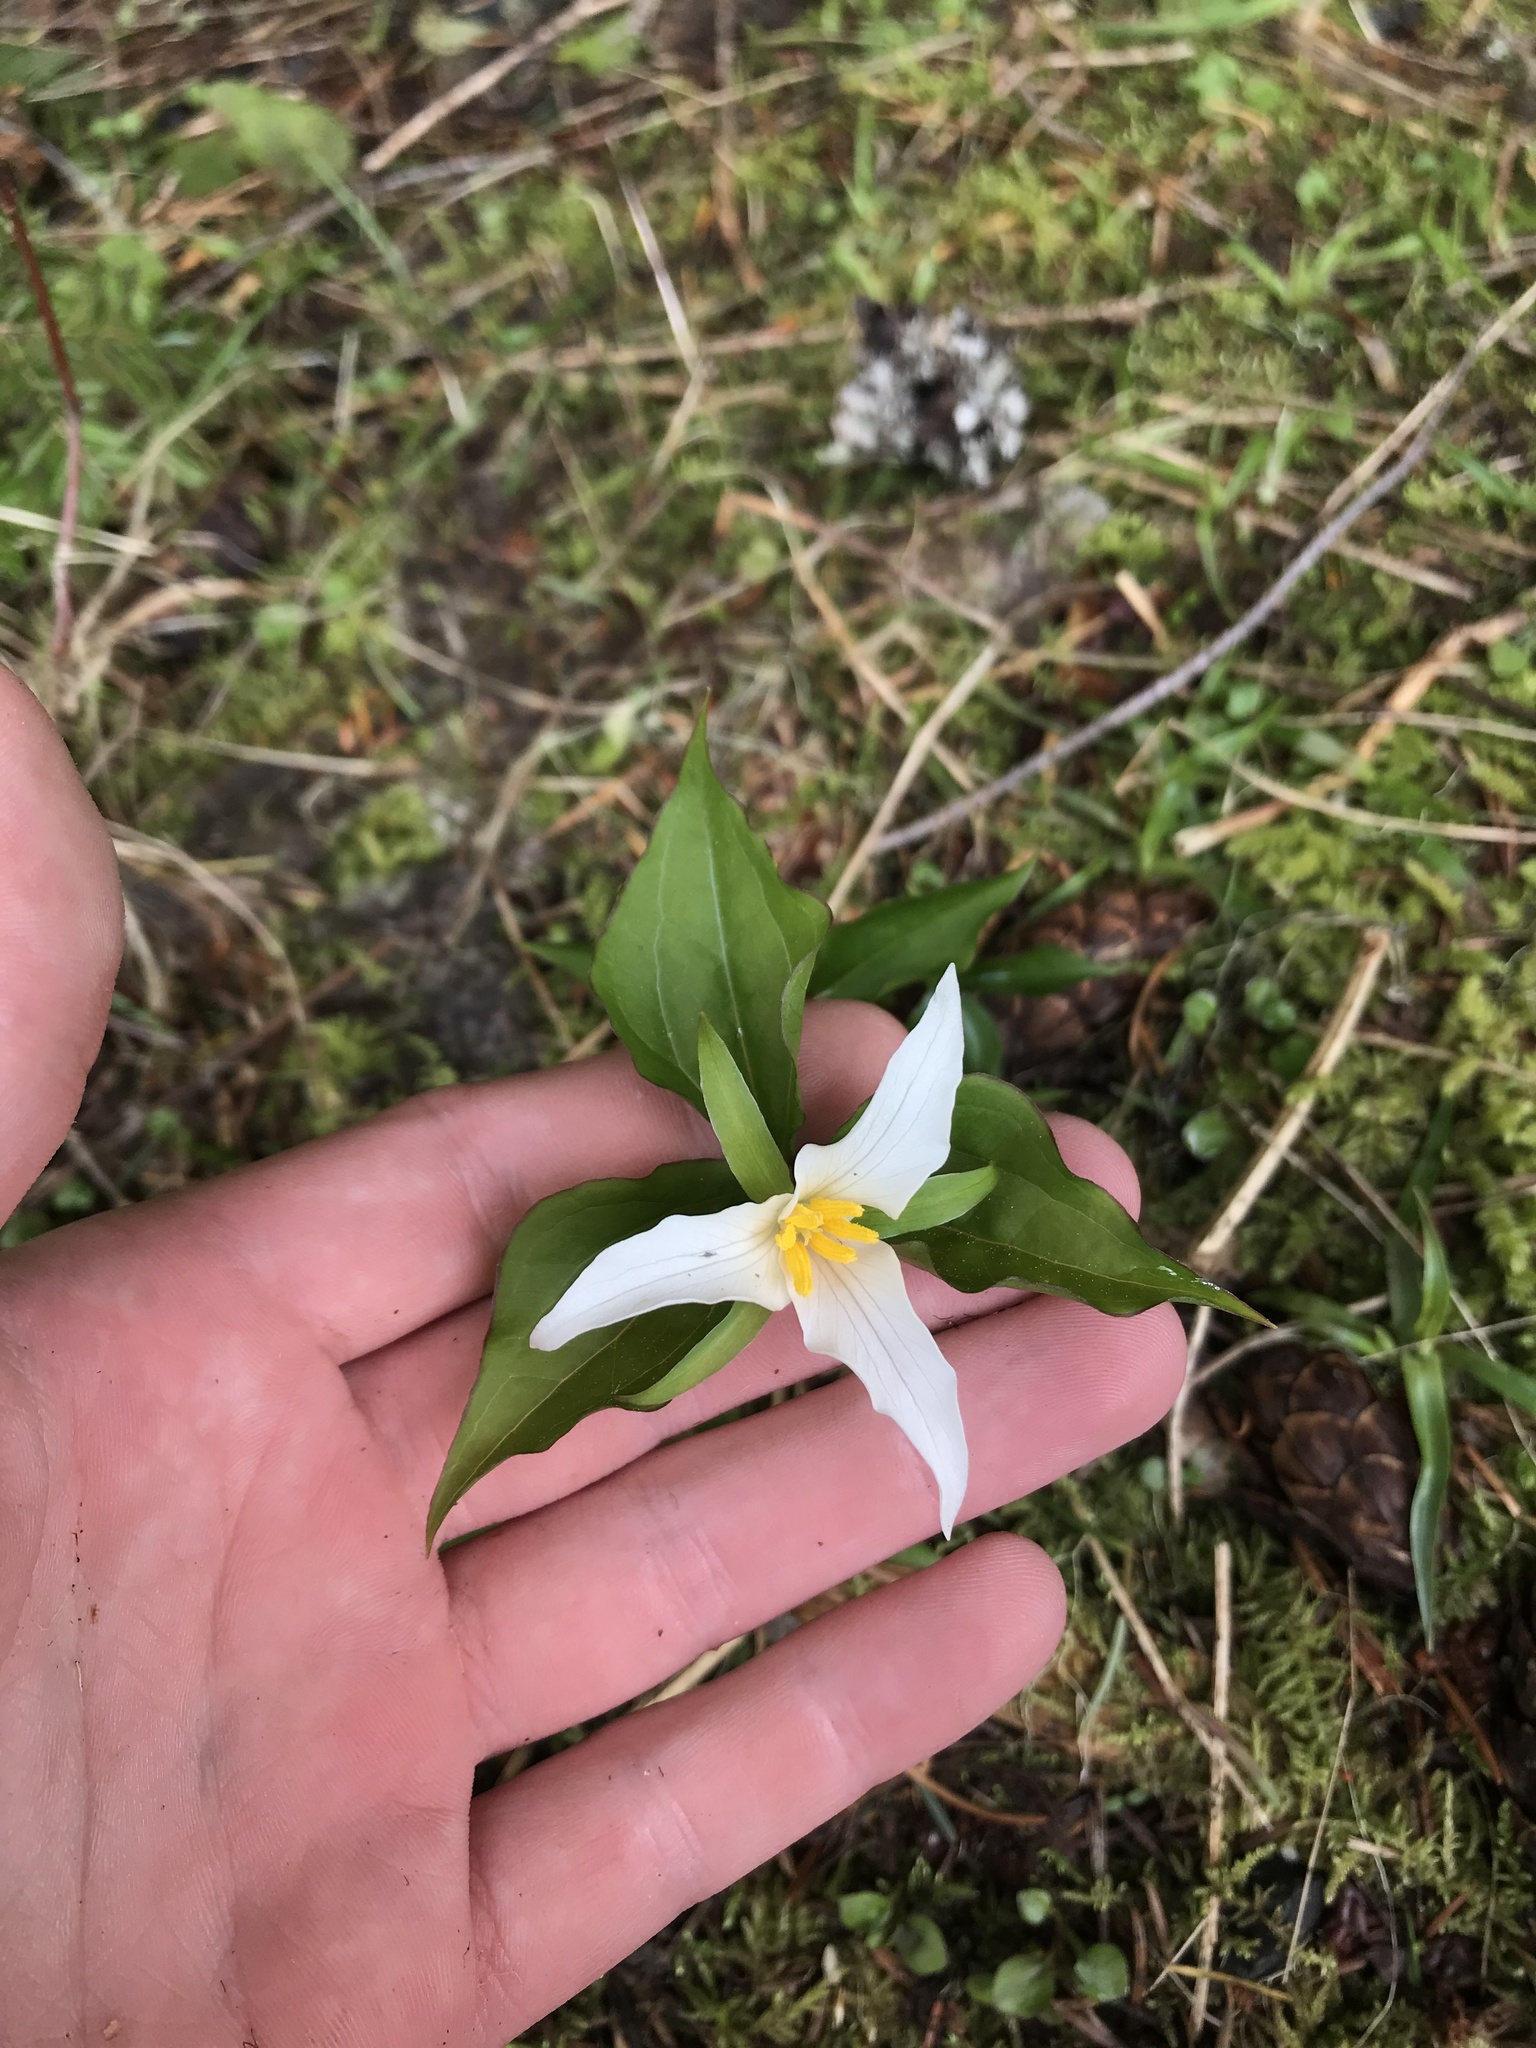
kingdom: Plantae
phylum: Tracheophyta
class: Liliopsida
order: Liliales
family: Melanthiaceae
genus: Trillium
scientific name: Trillium ovatum
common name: Pacific trillium
